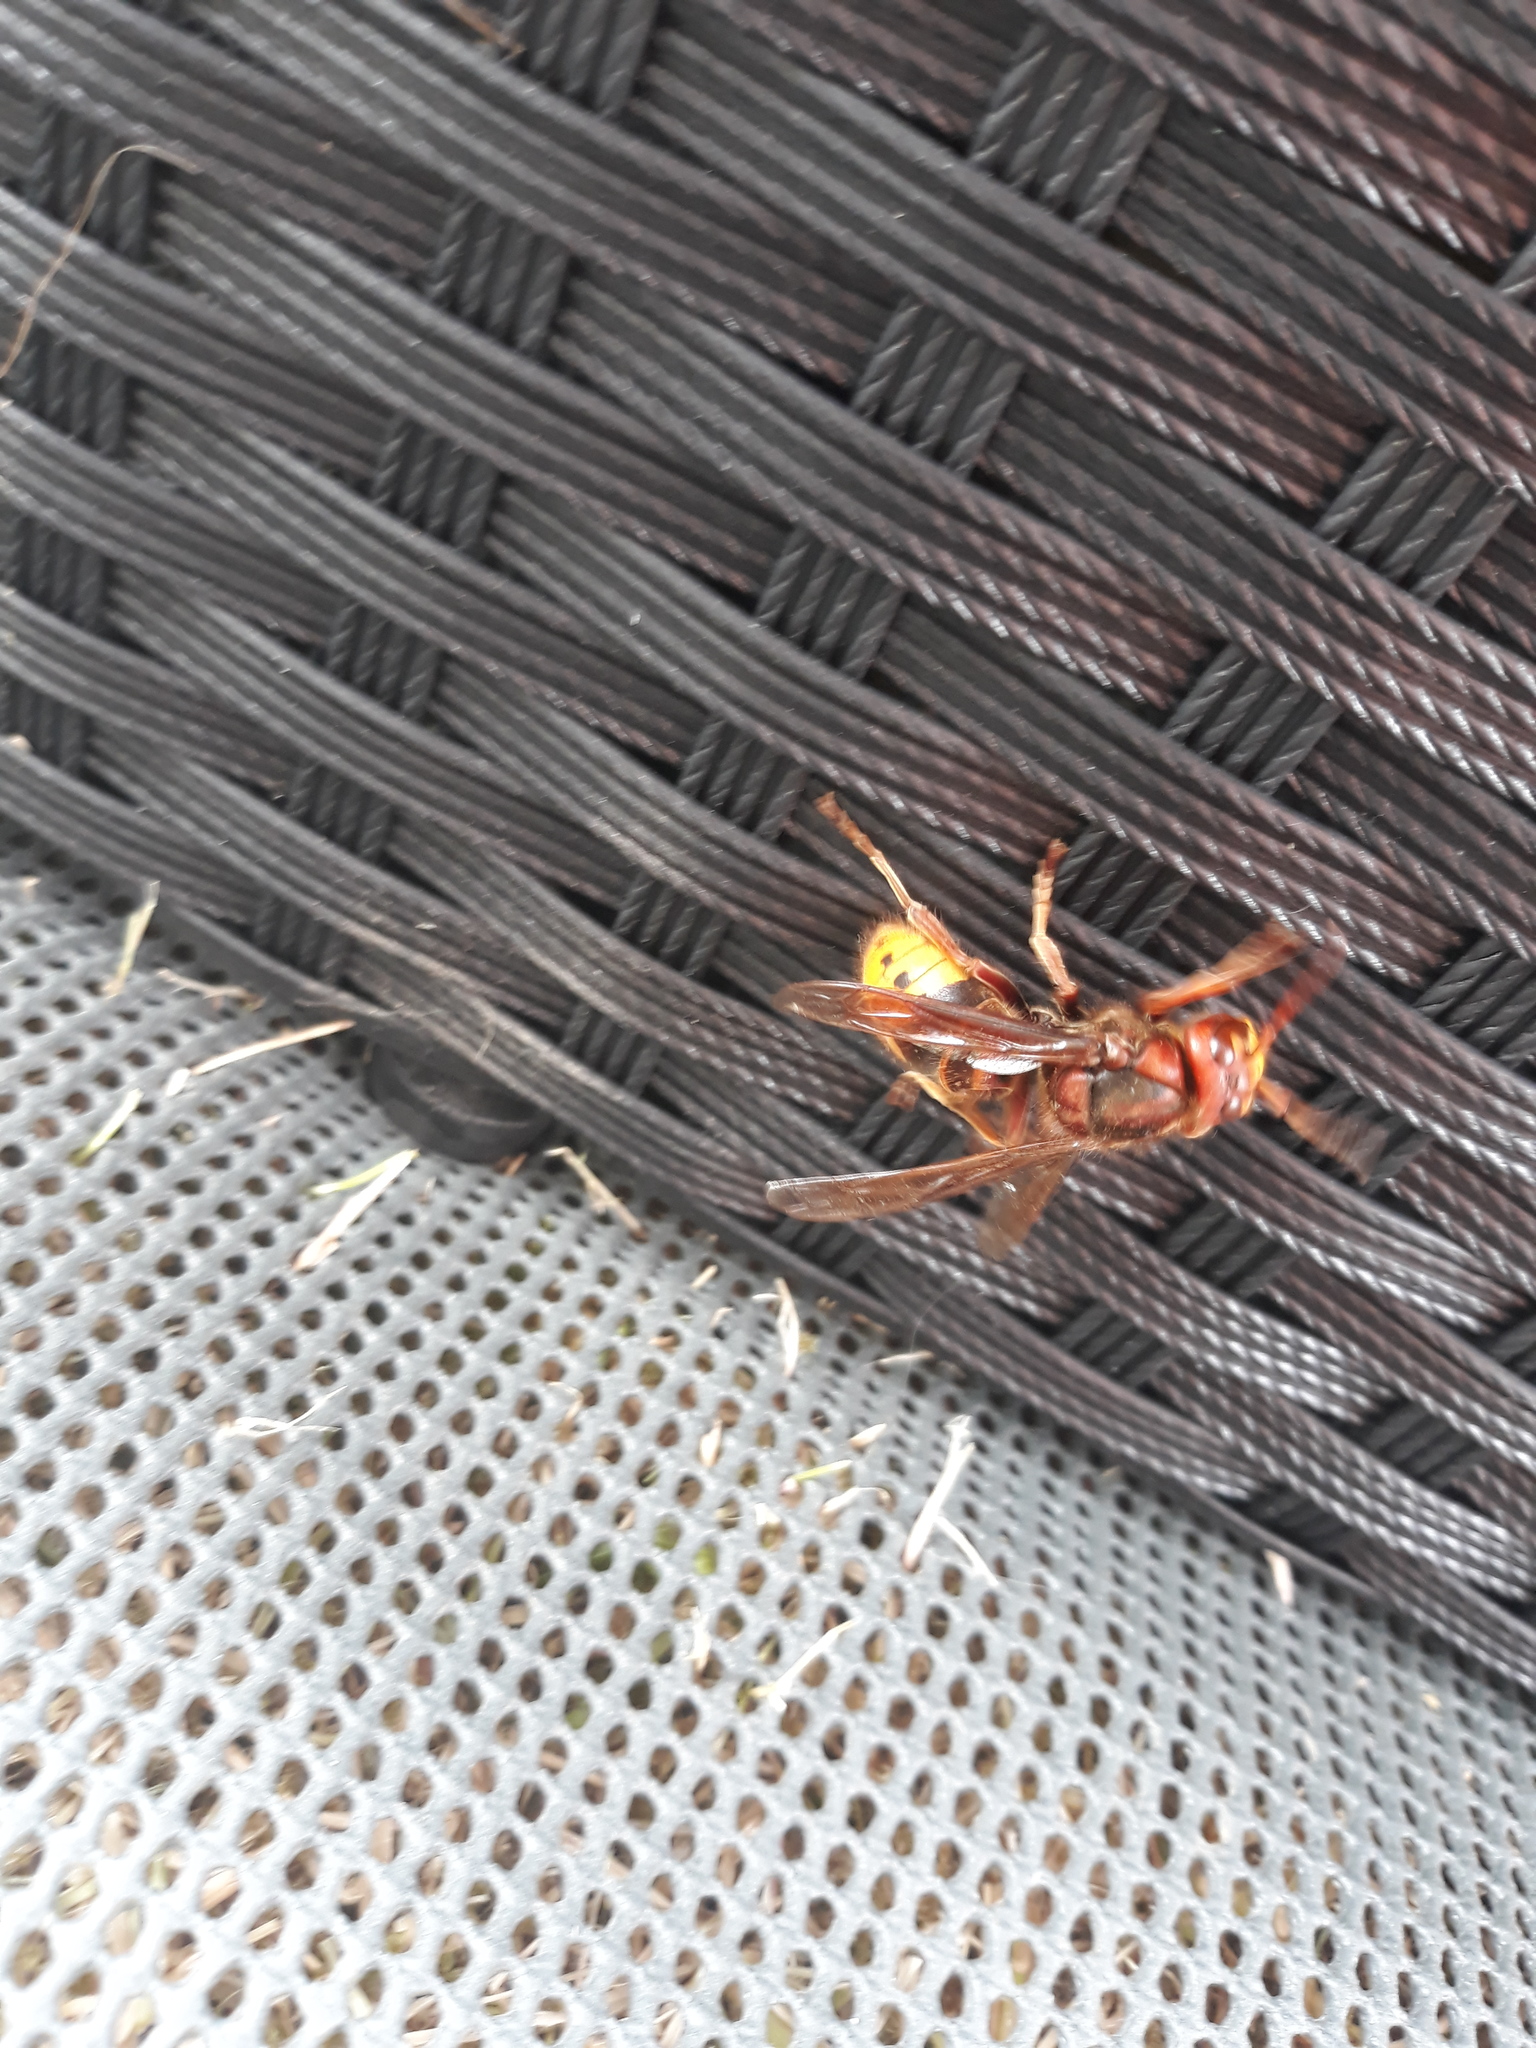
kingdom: Animalia
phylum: Arthropoda
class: Insecta
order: Hymenoptera
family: Vespidae
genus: Vespa
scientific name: Vespa crabro
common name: Hornet
